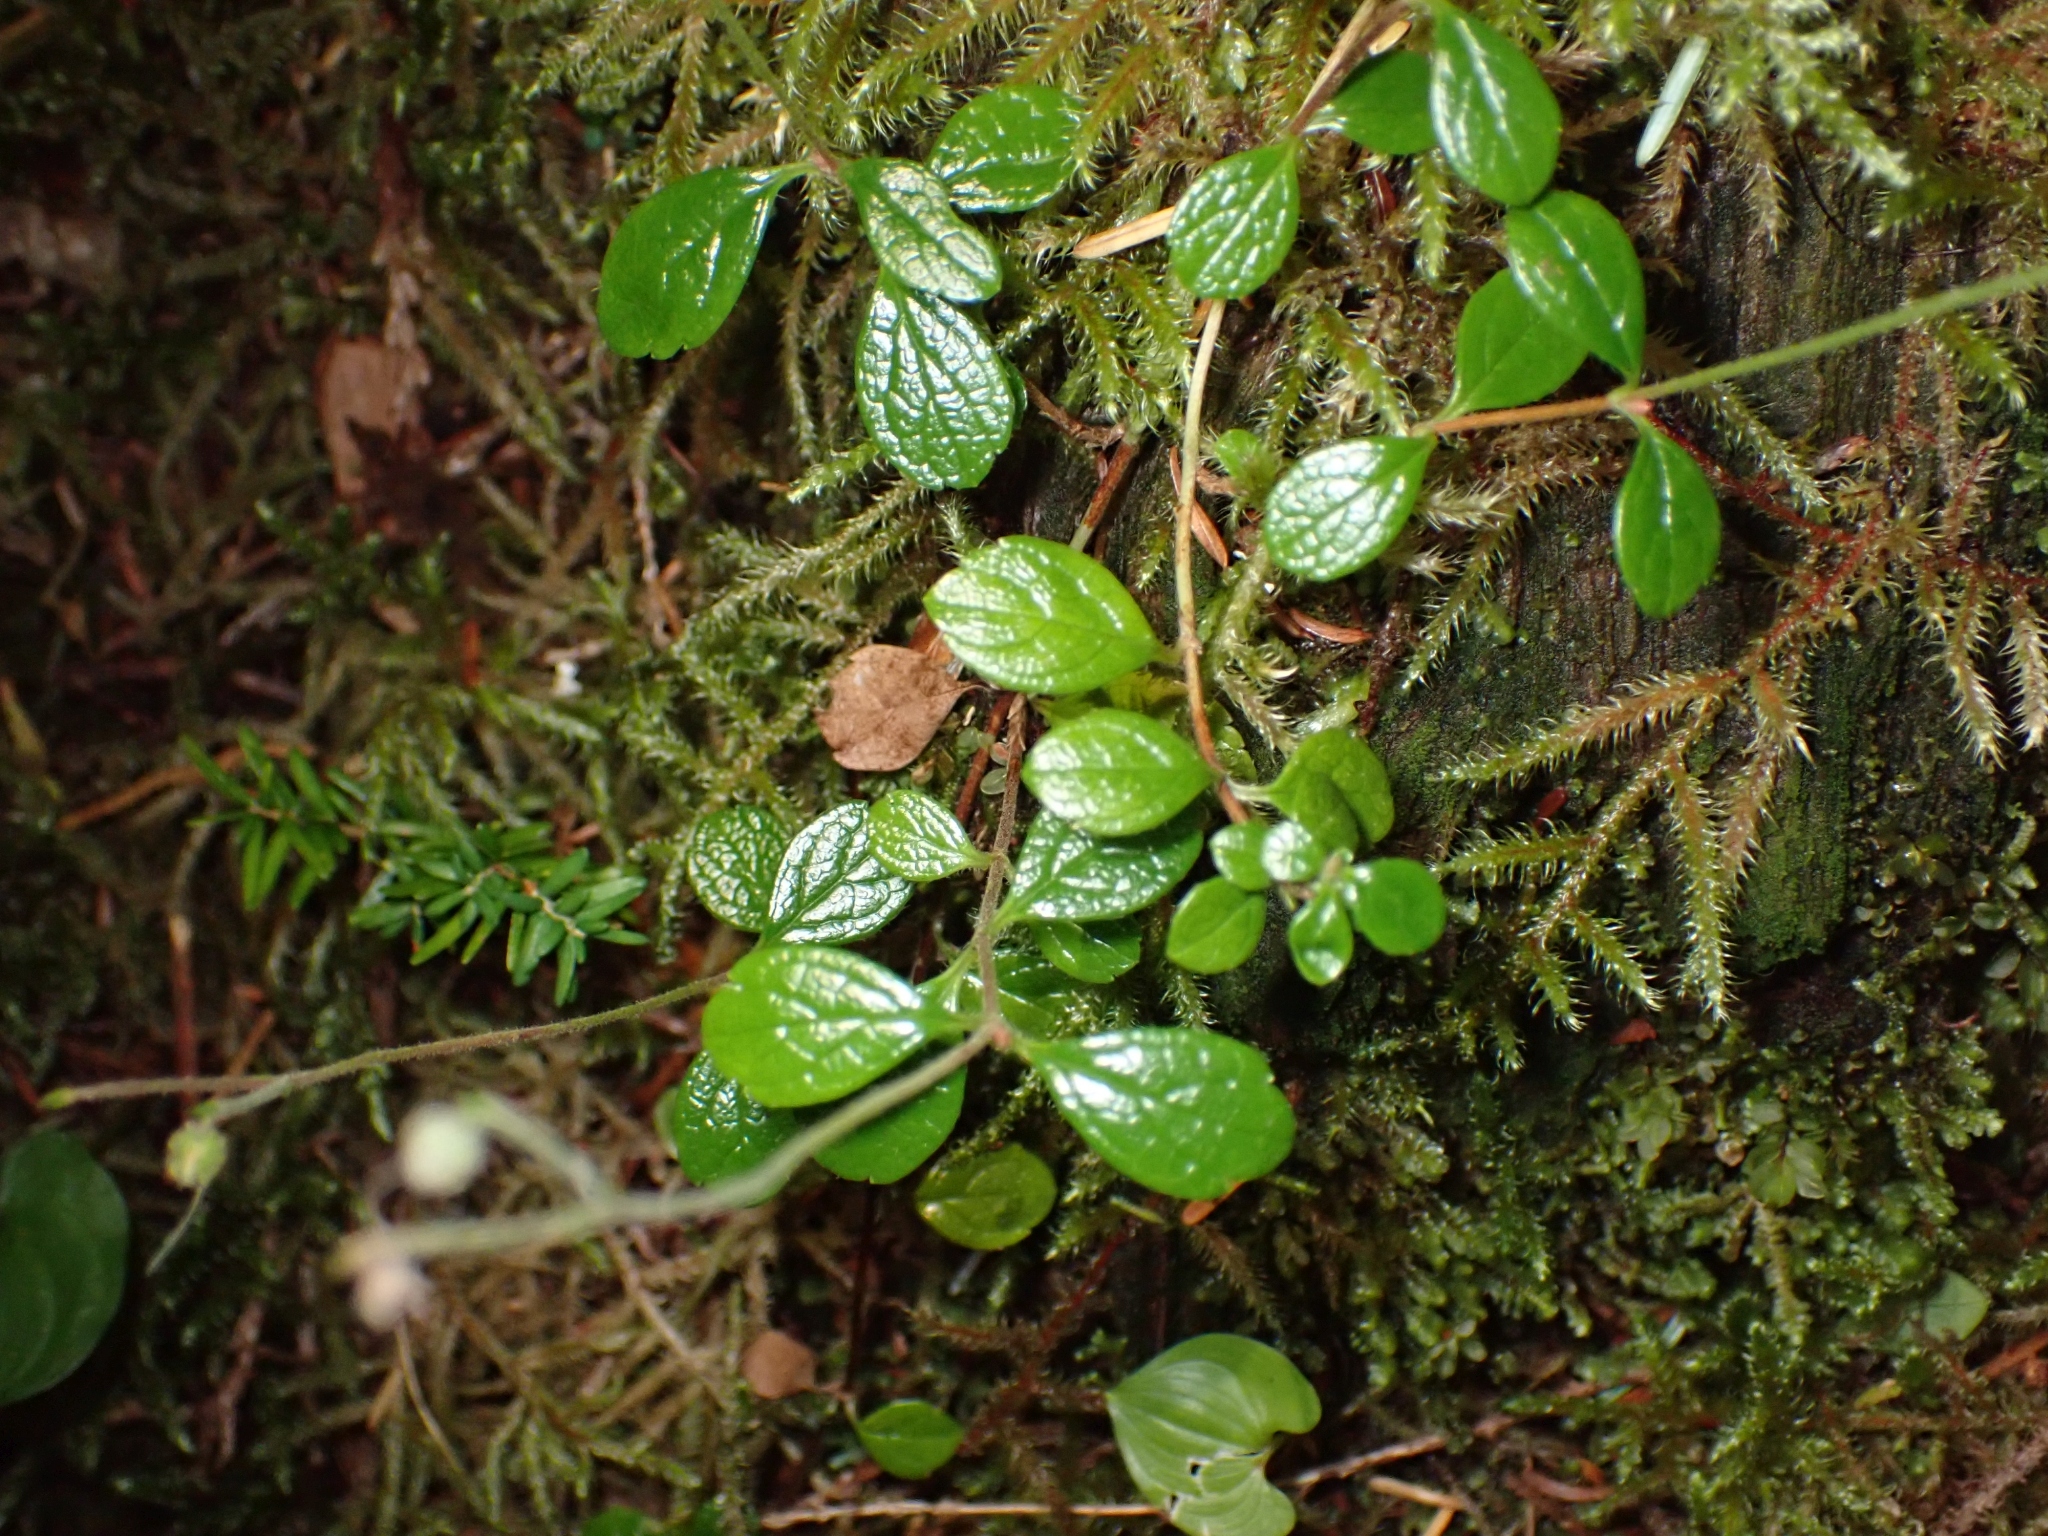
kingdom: Plantae
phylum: Tracheophyta
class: Magnoliopsida
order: Dipsacales
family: Caprifoliaceae
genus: Linnaea
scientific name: Linnaea borealis
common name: Twinflower
